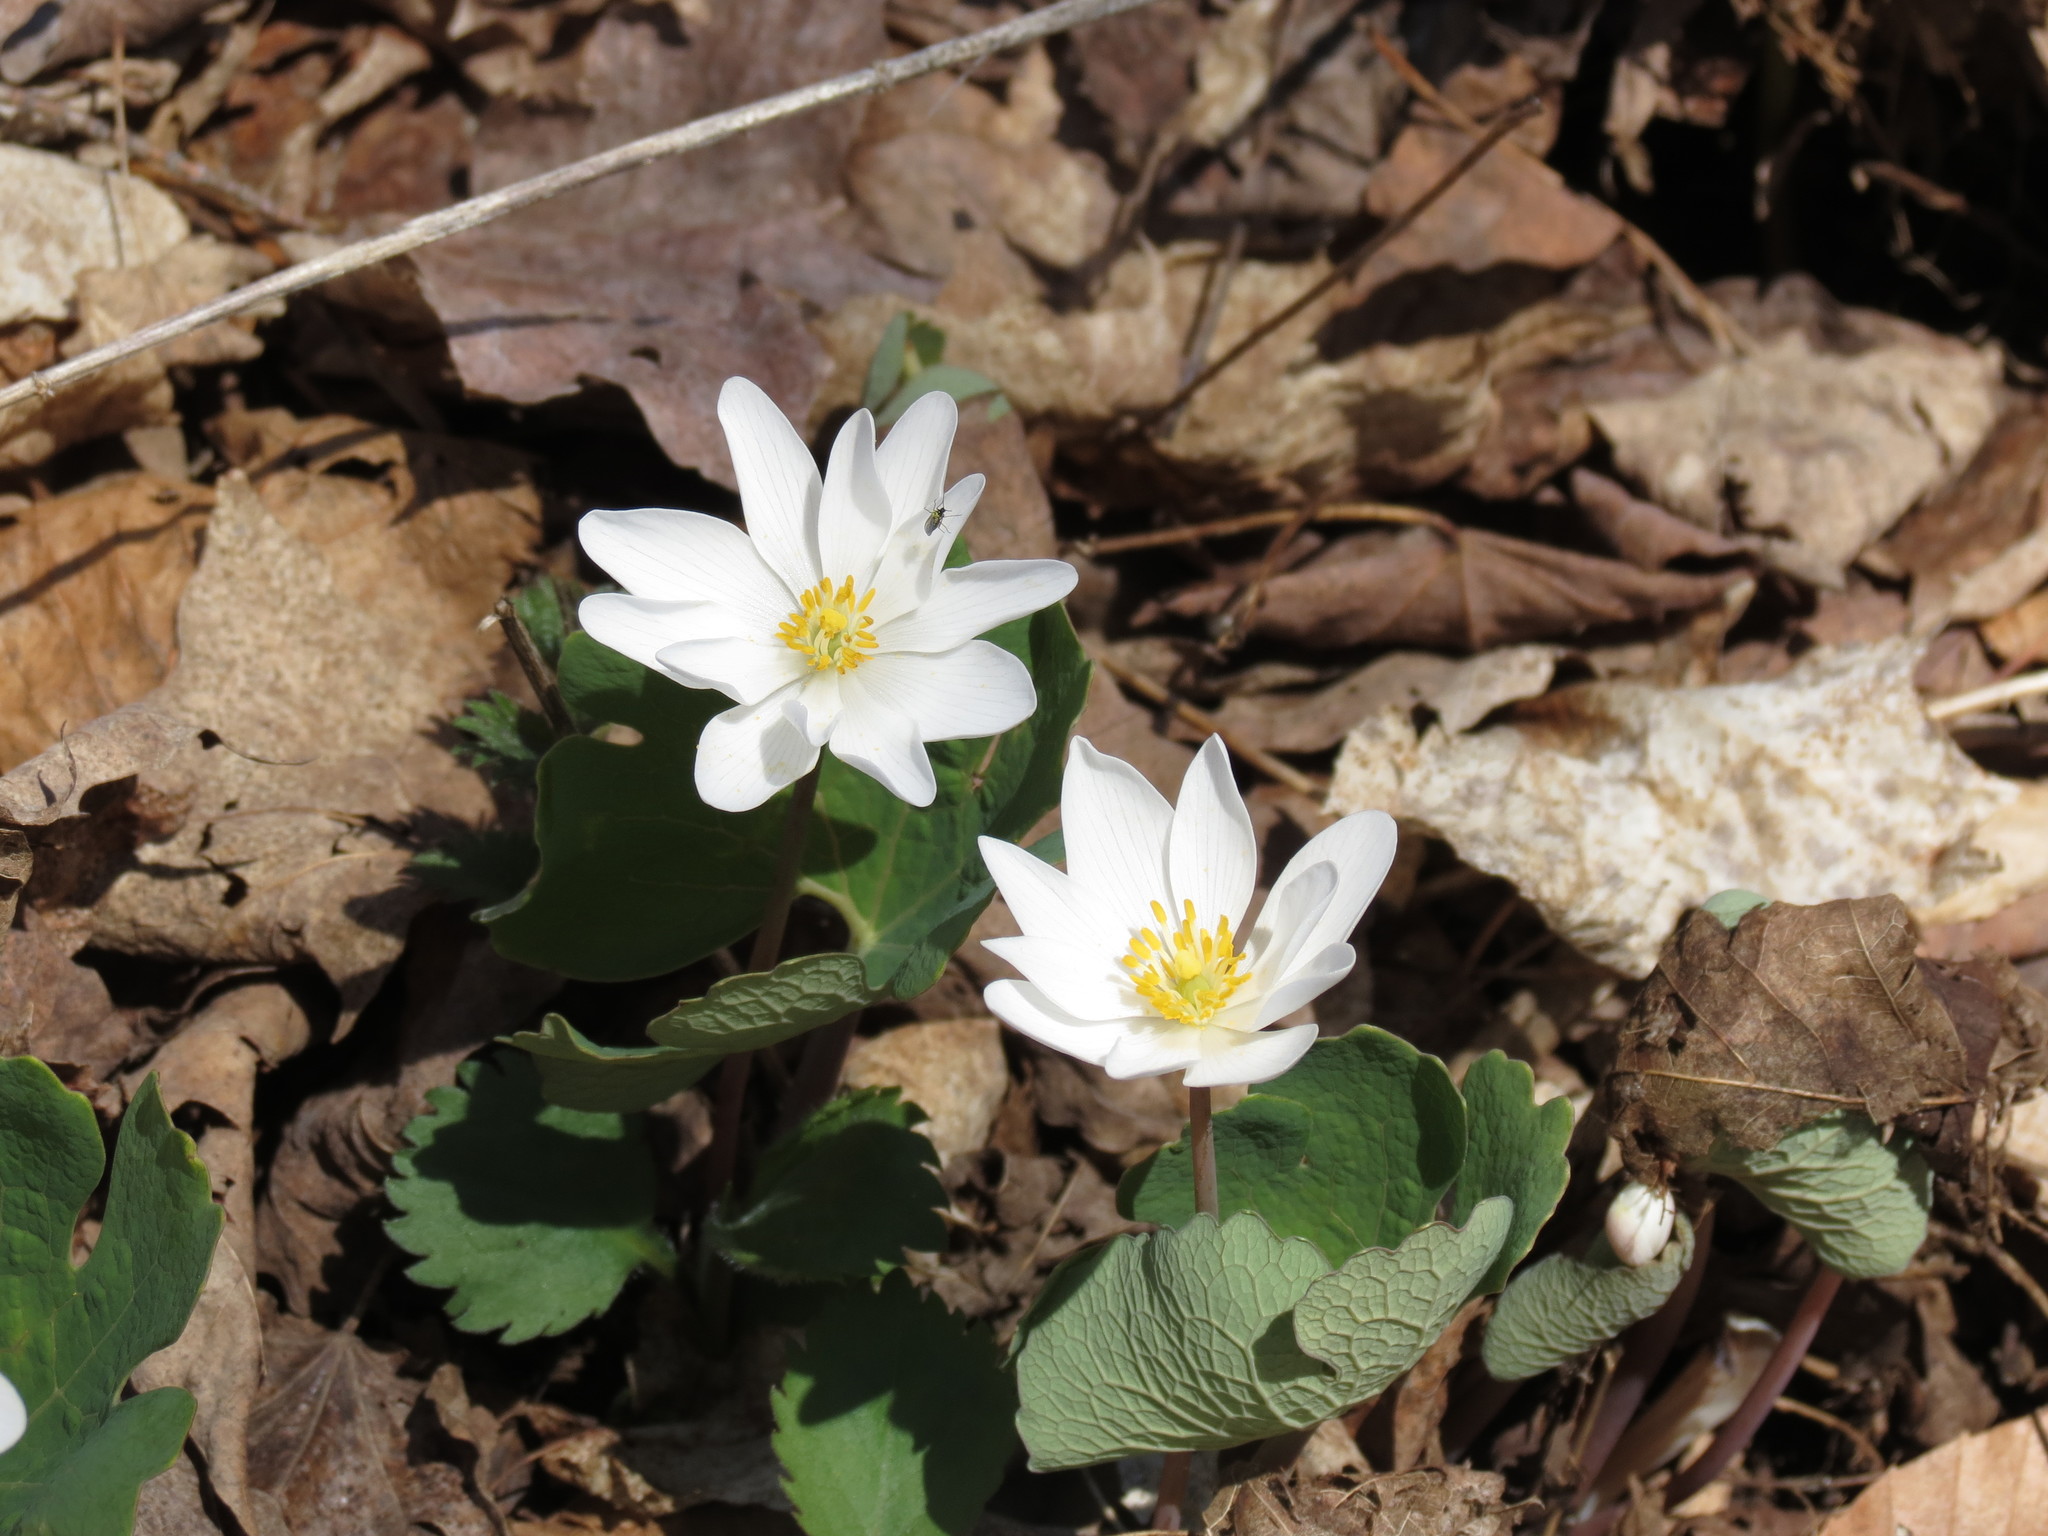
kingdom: Plantae
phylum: Tracheophyta
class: Magnoliopsida
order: Ranunculales
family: Papaveraceae
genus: Sanguinaria
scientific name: Sanguinaria canadensis
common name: Bloodroot
